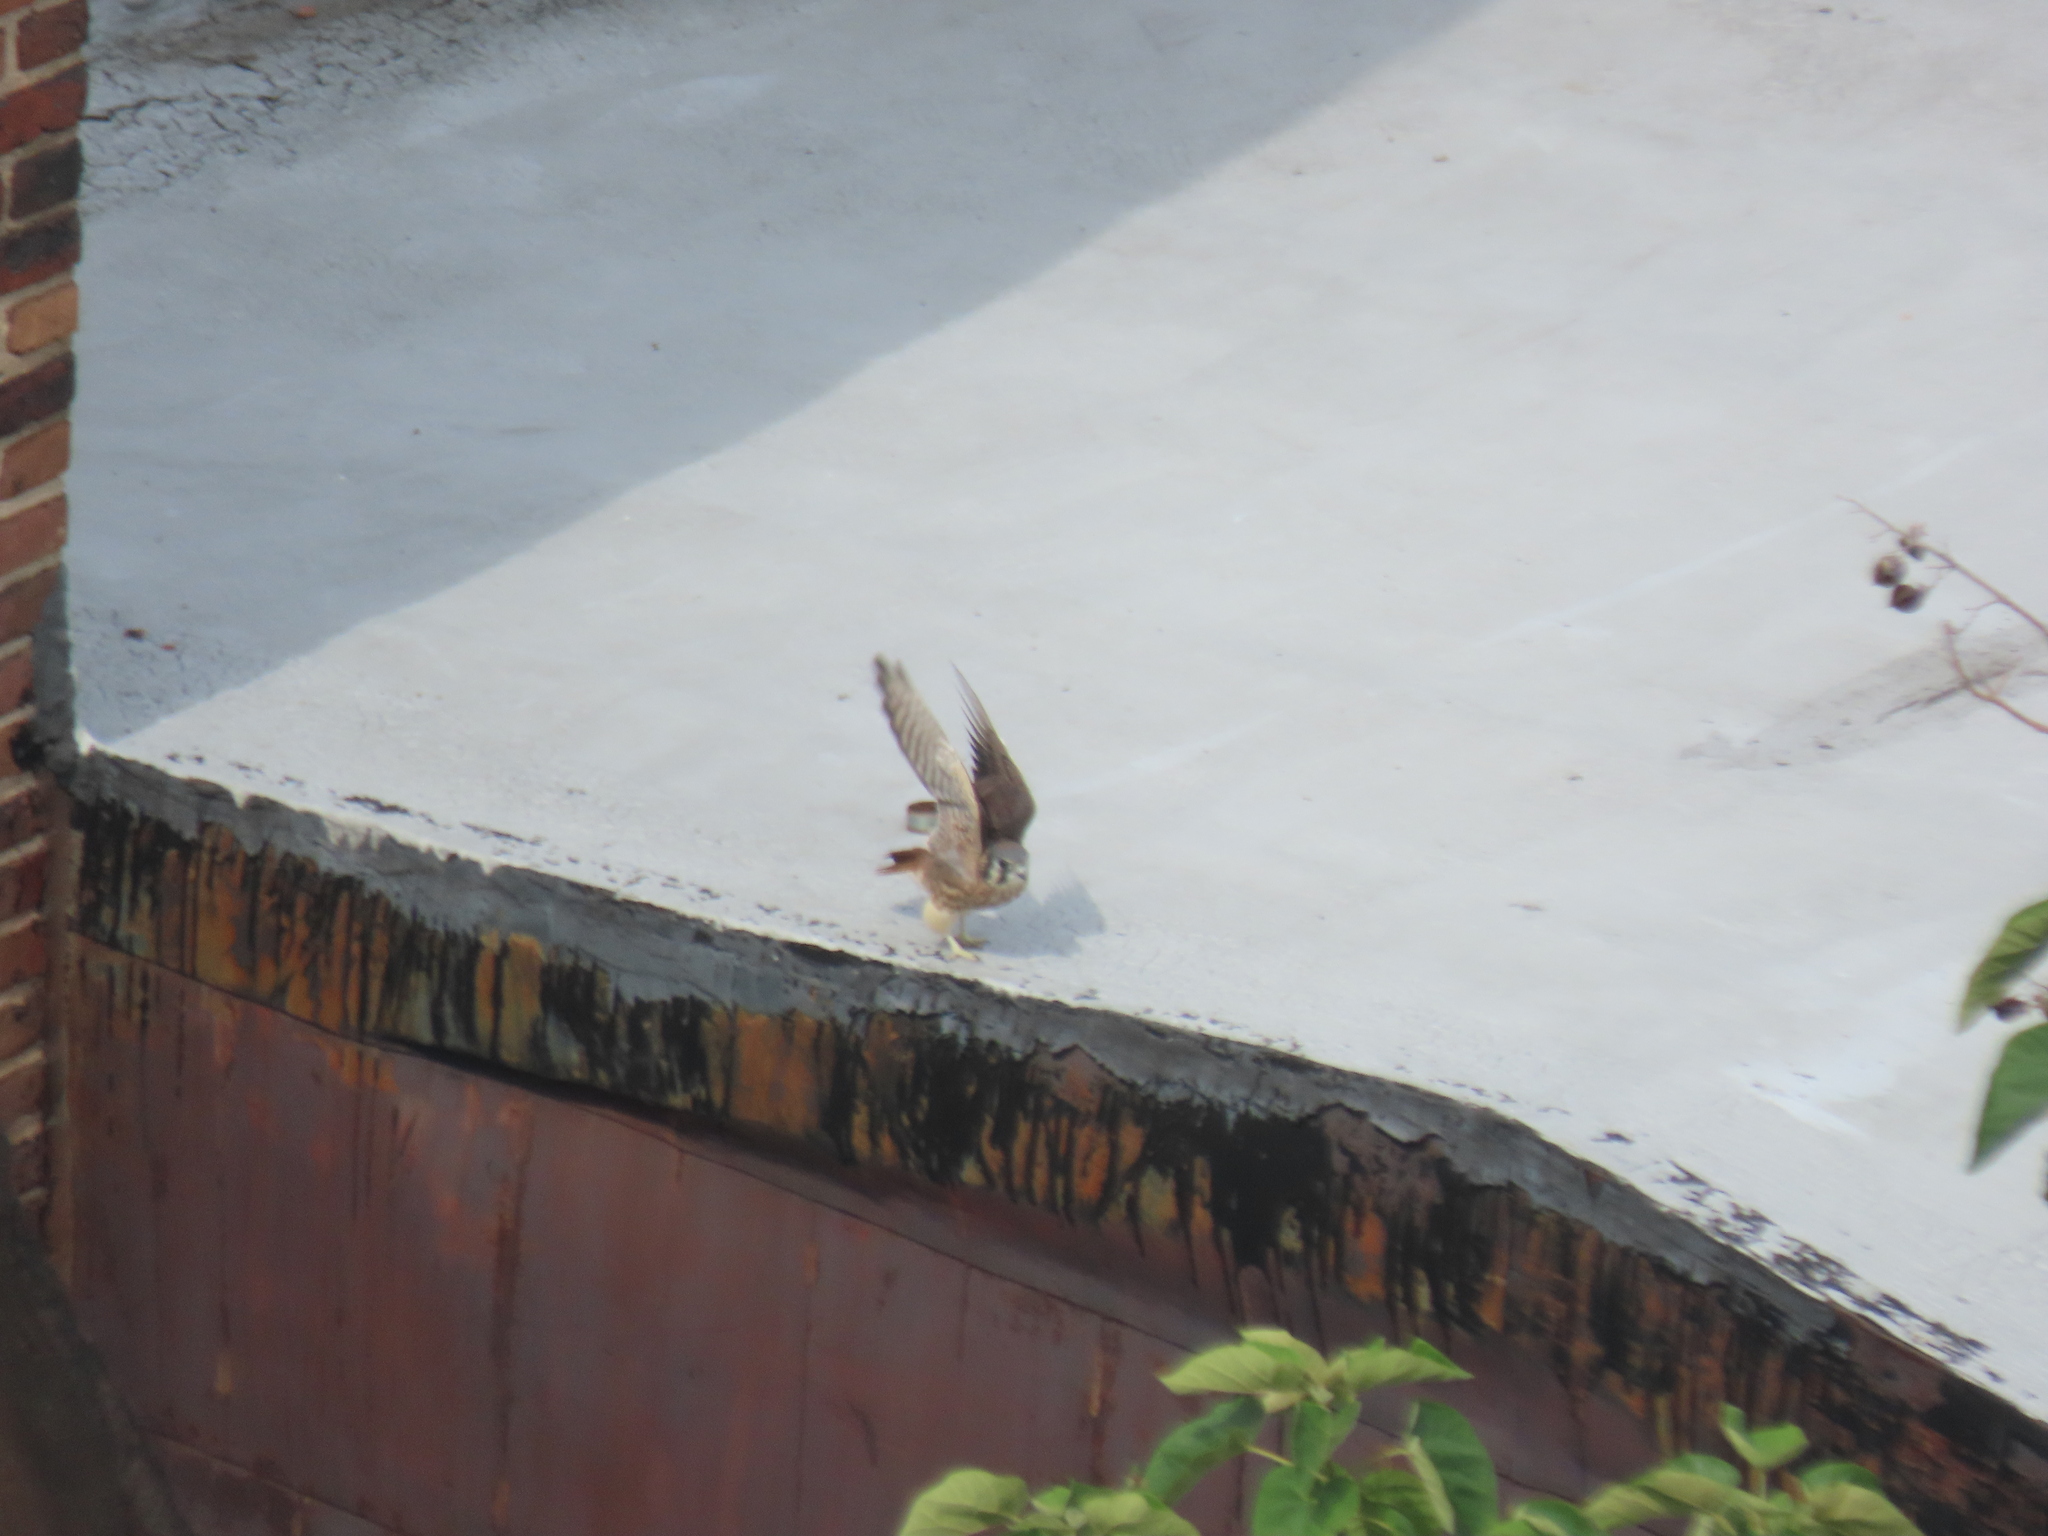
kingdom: Animalia
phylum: Chordata
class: Aves
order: Falconiformes
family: Falconidae
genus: Falco
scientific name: Falco sparverius
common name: American kestrel
